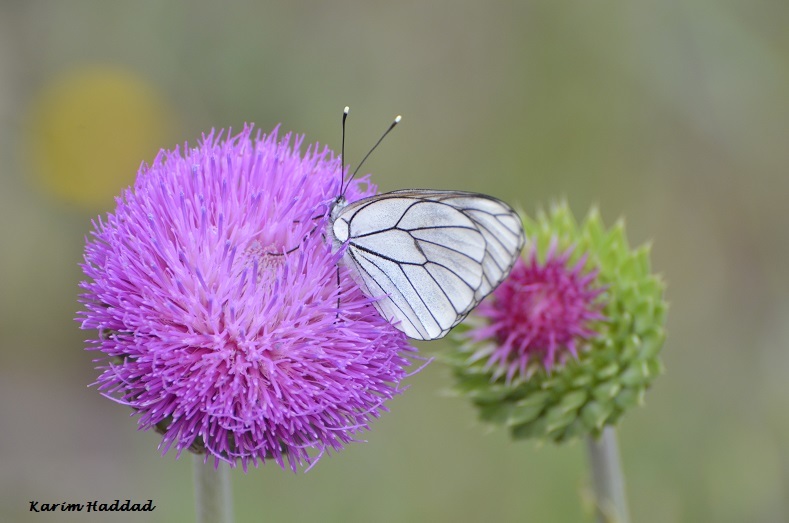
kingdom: Animalia
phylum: Arthropoda
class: Insecta
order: Lepidoptera
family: Pieridae
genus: Aporia
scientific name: Aporia crataegi
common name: Black-veined white
